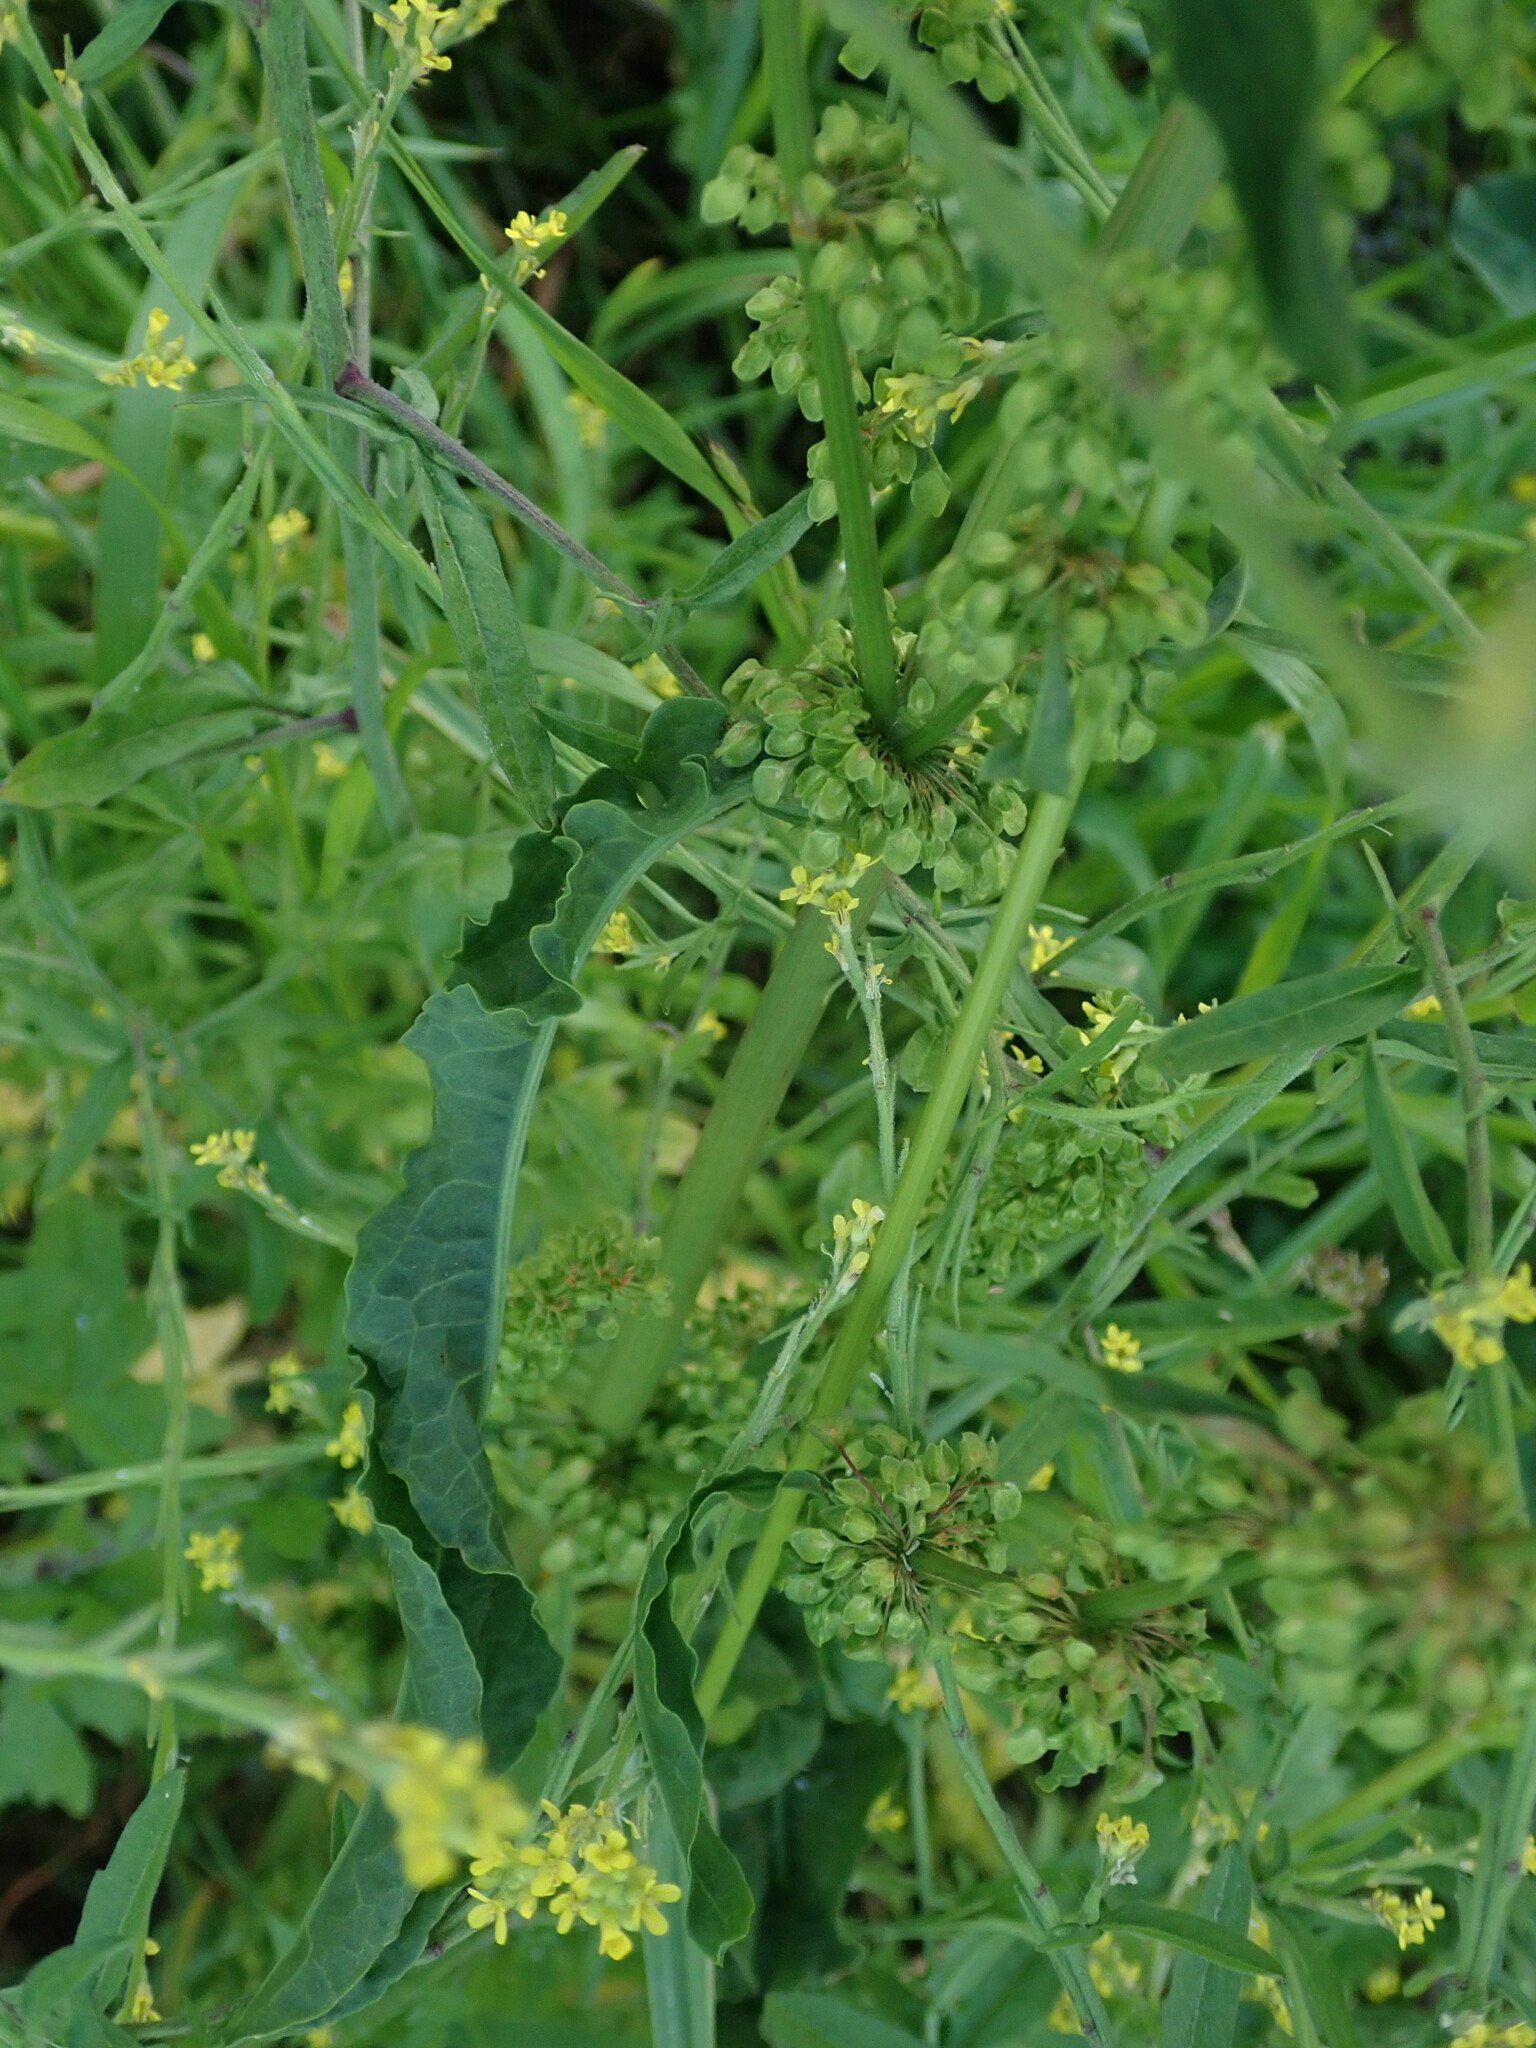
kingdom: Plantae
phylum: Tracheophyta
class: Magnoliopsida
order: Caryophyllales
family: Polygonaceae
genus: Rumex
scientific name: Rumex crispus
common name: Curled dock
